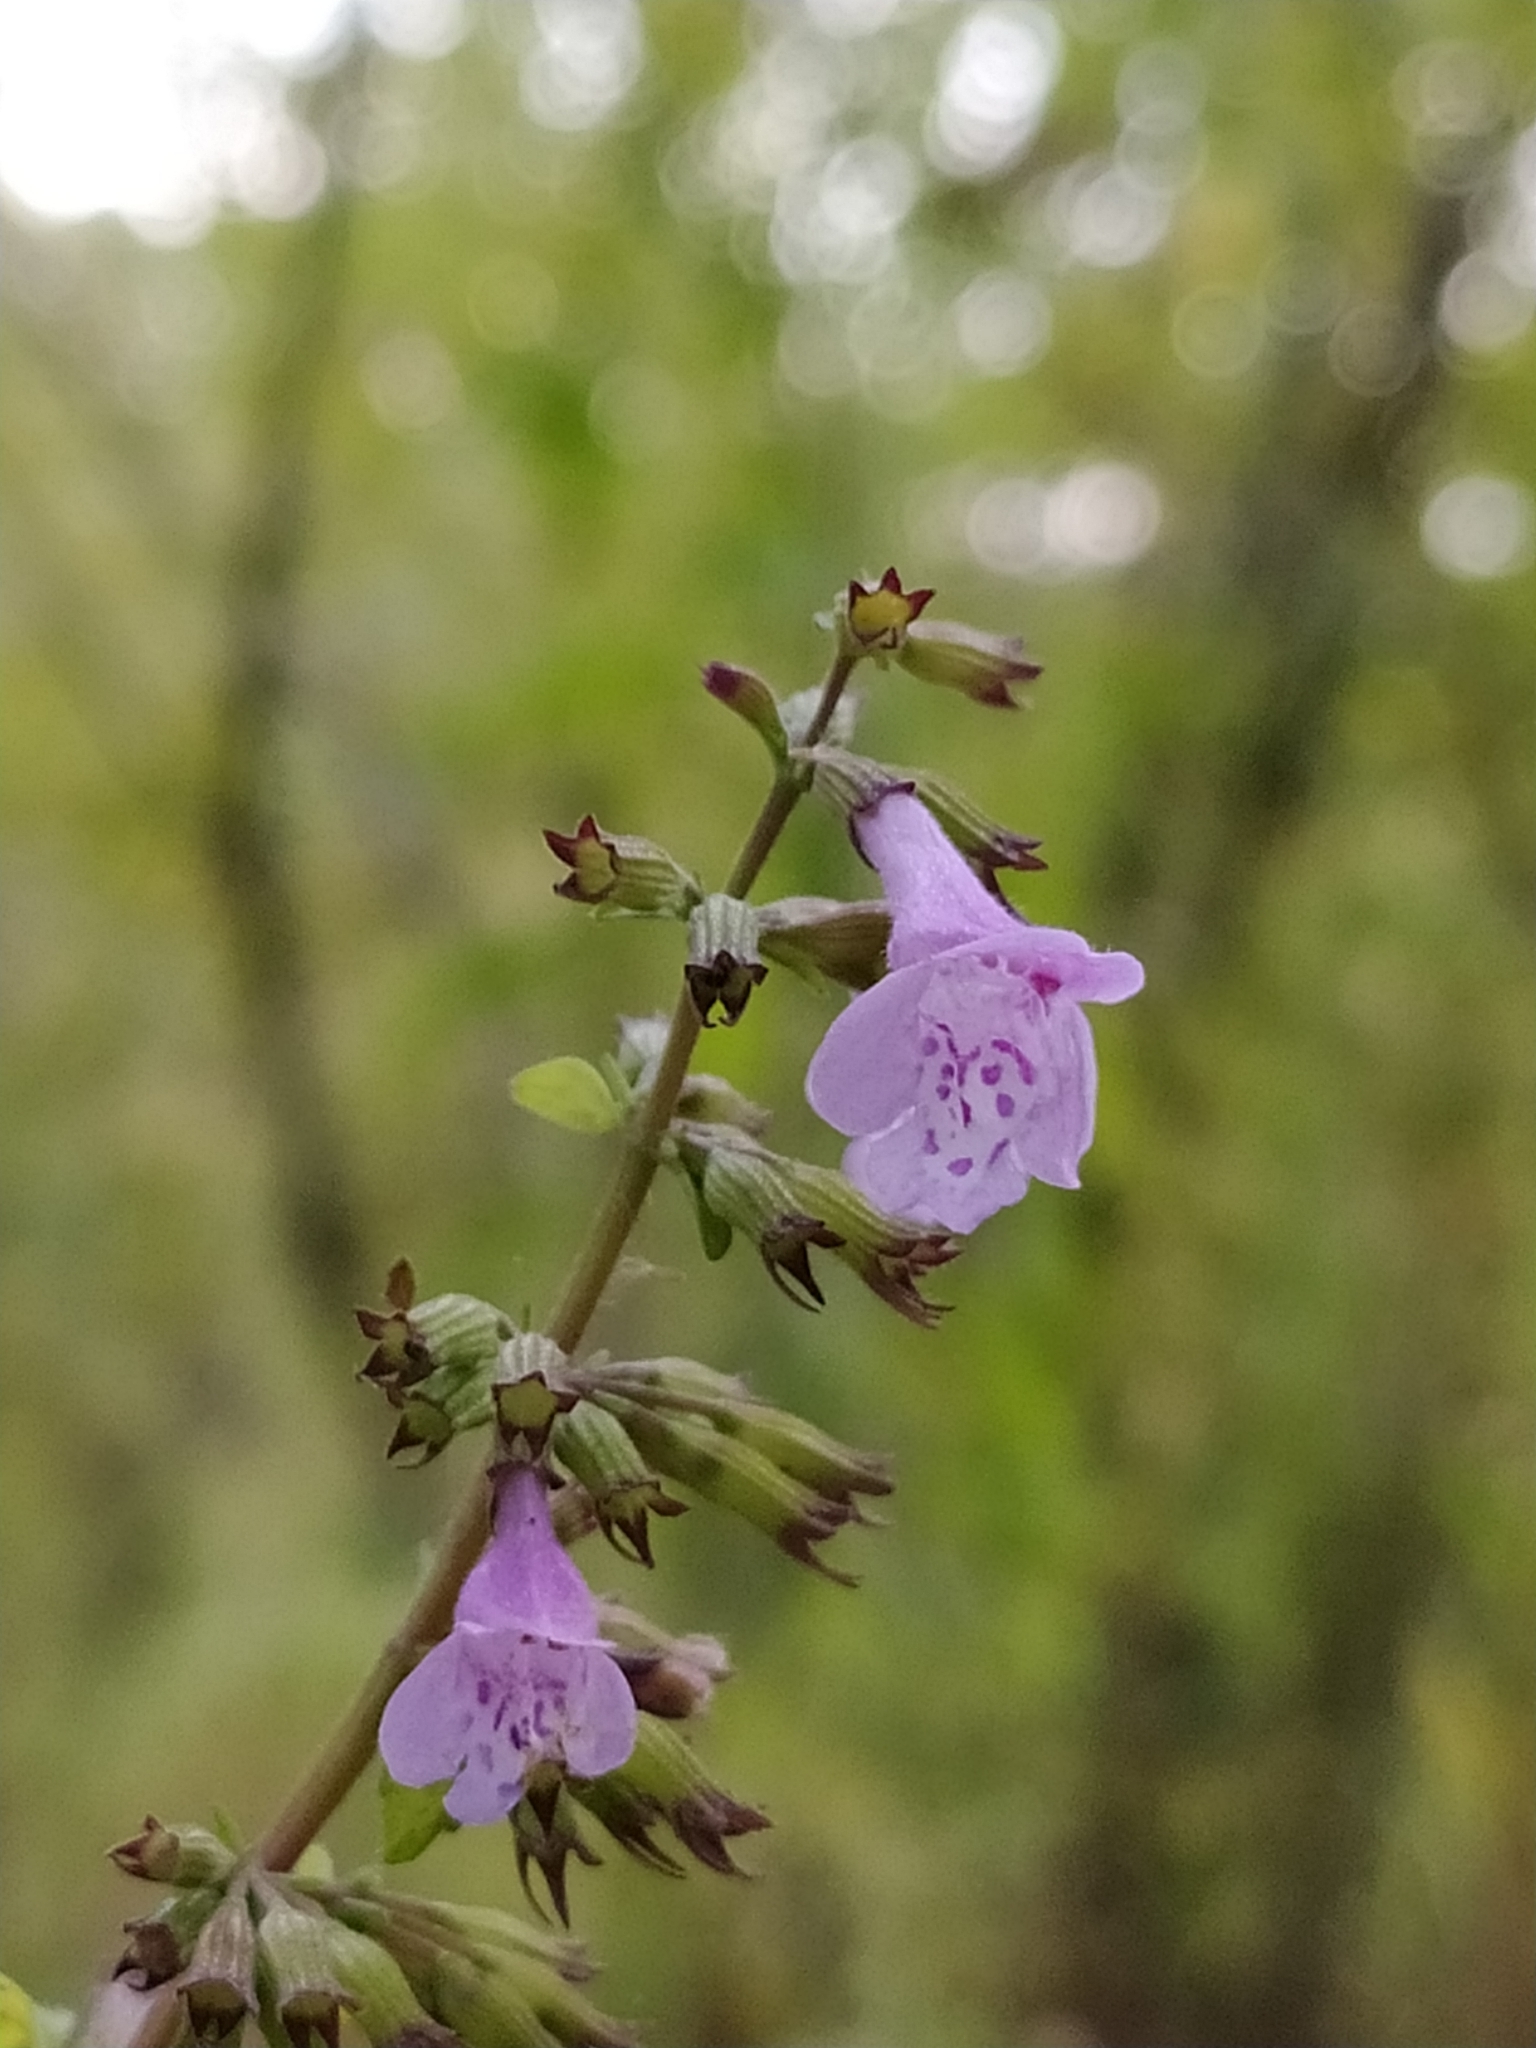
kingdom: Plantae
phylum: Tracheophyta
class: Magnoliopsida
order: Lamiales
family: Lamiaceae
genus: Clinopodium
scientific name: Clinopodium menthifolium
